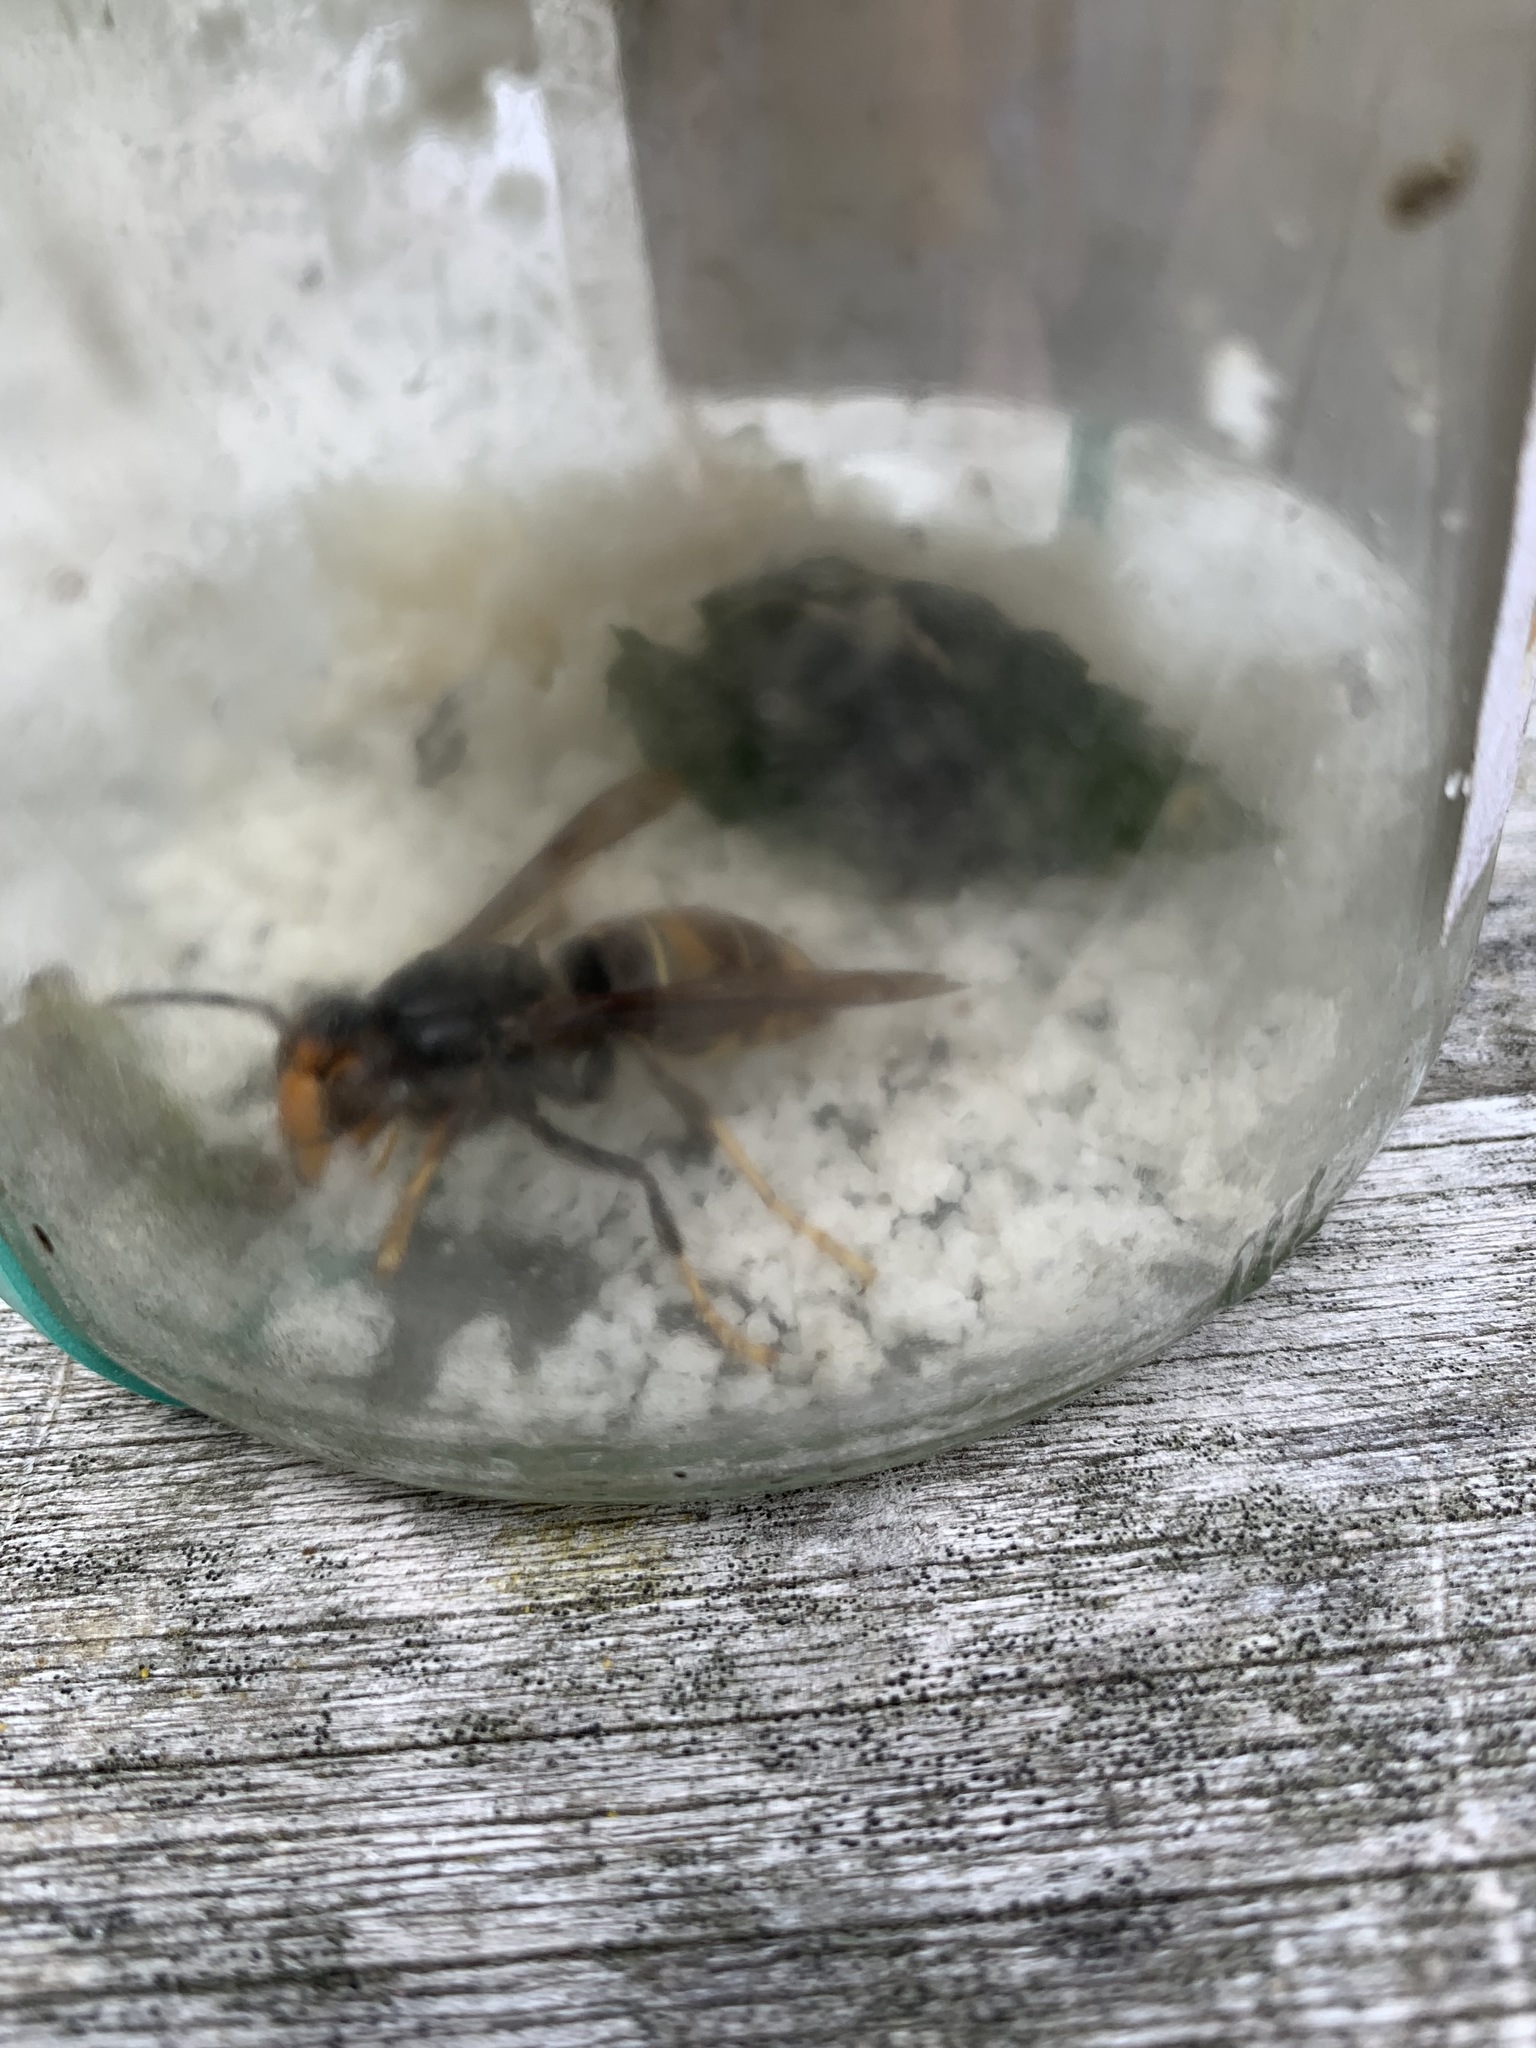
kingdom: Animalia
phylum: Arthropoda
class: Insecta
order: Hymenoptera
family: Vespidae
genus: Vespa
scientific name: Vespa velutina
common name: Asian hornet
